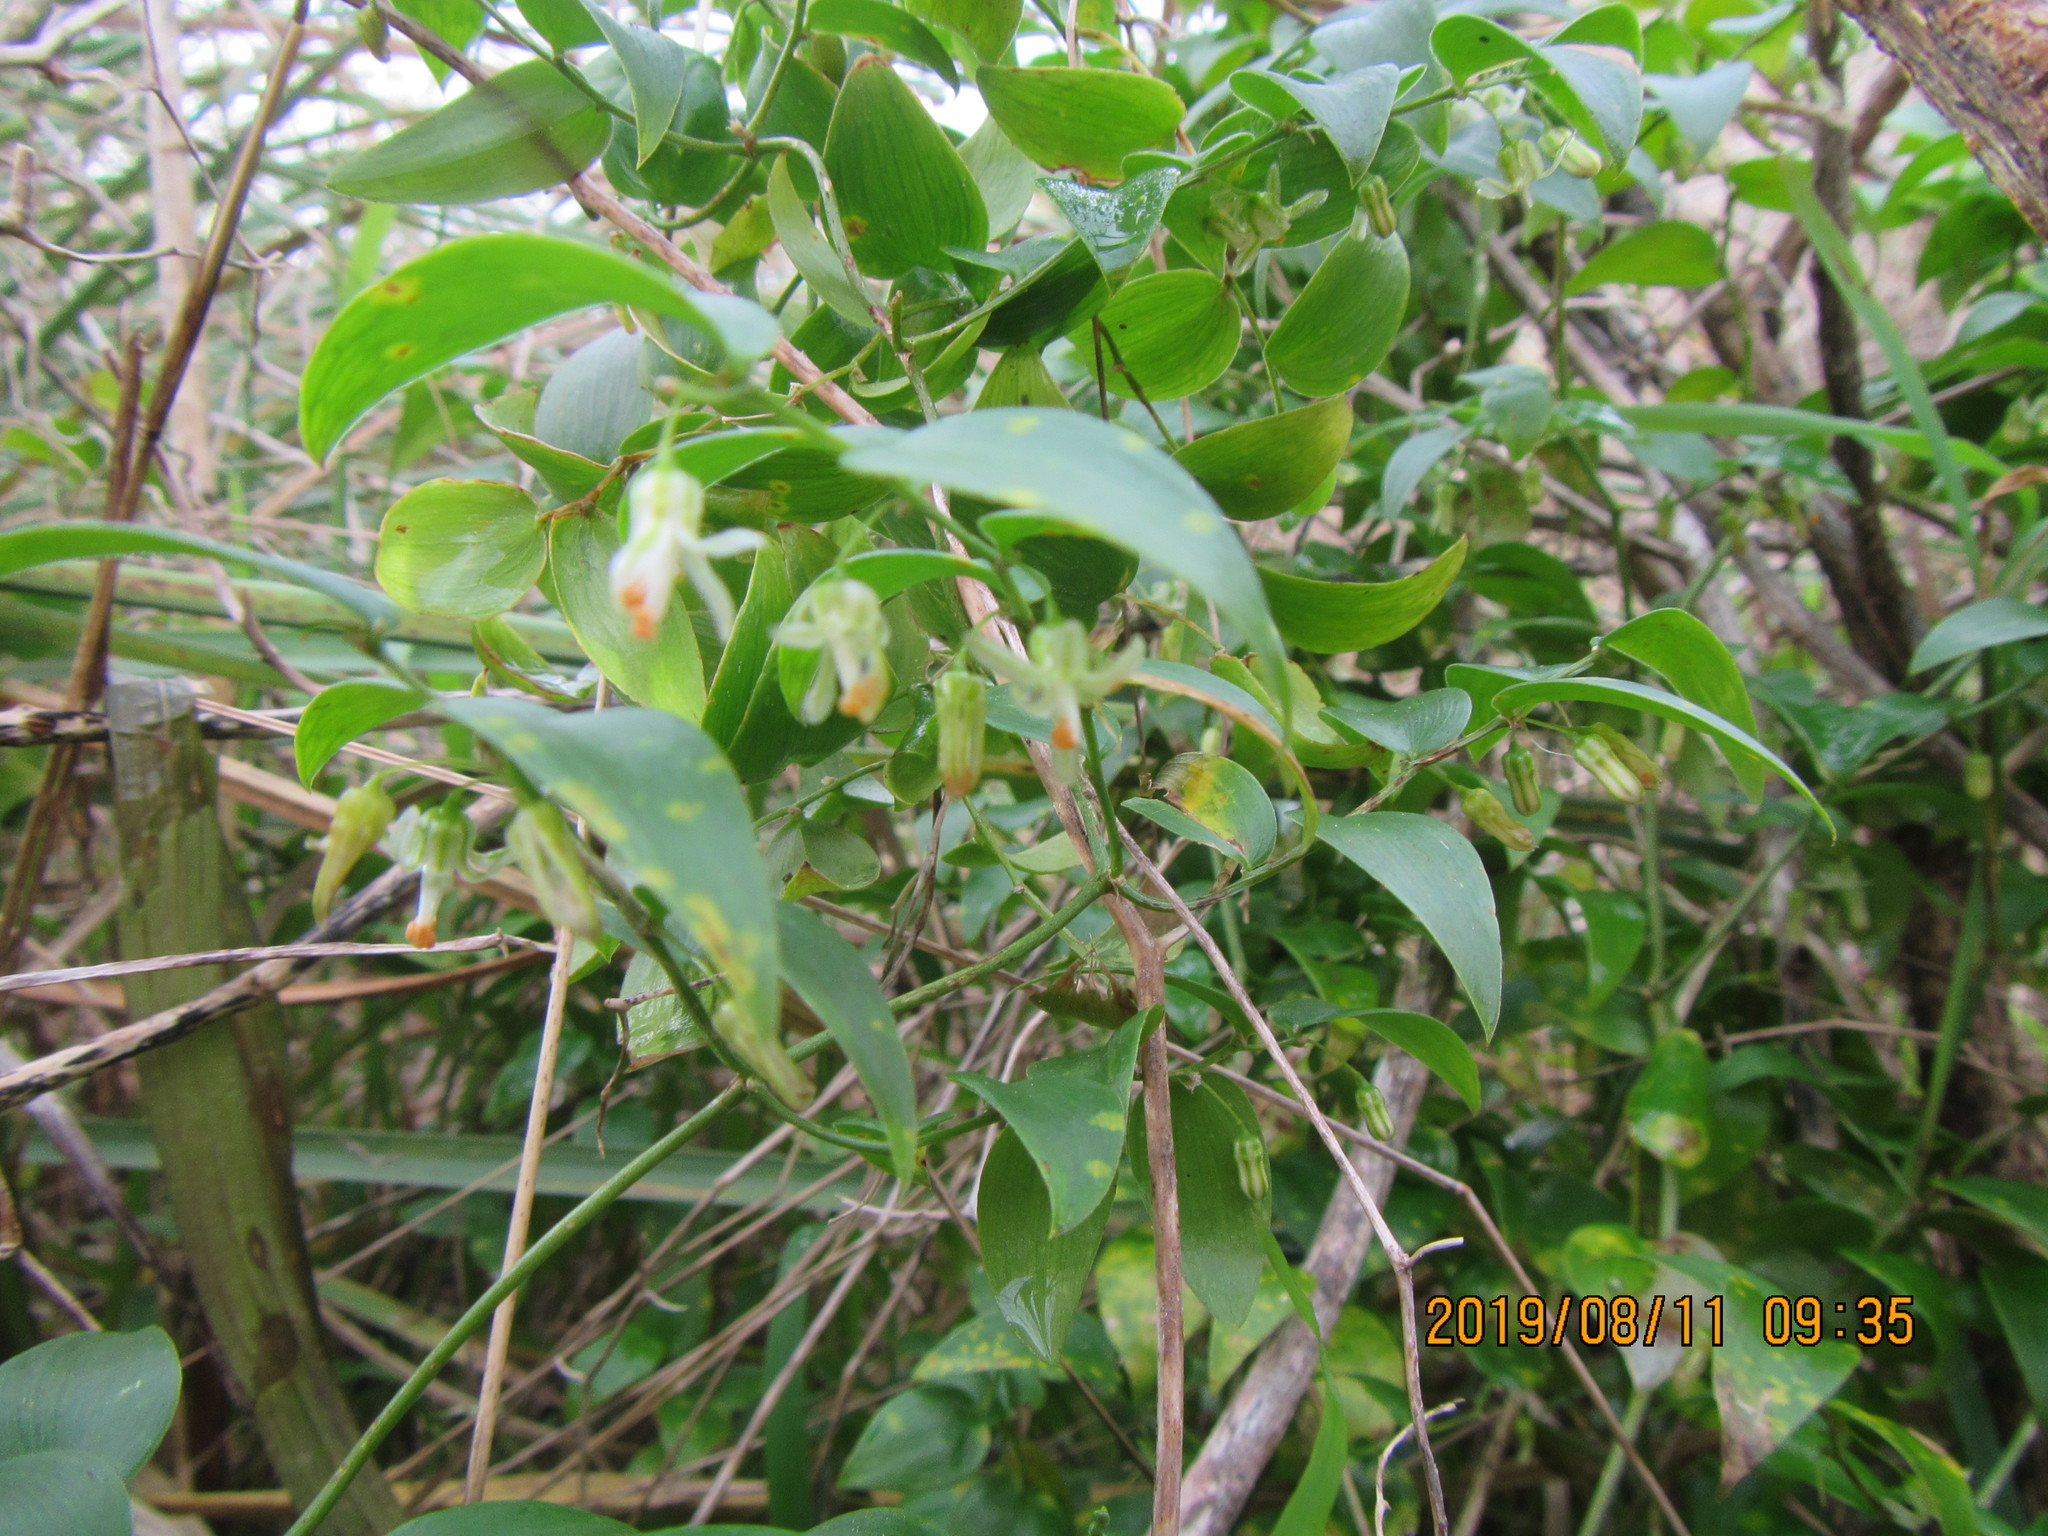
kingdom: Plantae
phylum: Tracheophyta
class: Liliopsida
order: Asparagales
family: Asparagaceae
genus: Asparagus
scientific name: Asparagus asparagoides
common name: African asparagus fern
